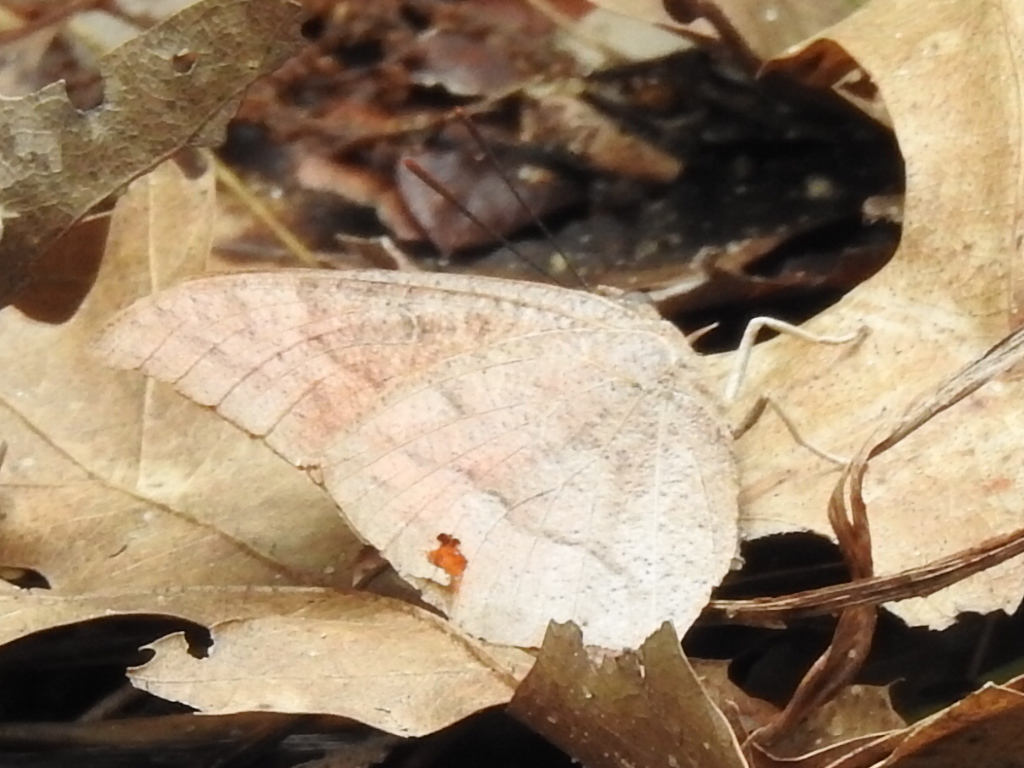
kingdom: Animalia
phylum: Arthropoda
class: Insecta
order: Lepidoptera
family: Nymphalidae
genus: Anaea
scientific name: Anaea andria
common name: Goatweed leafwing
